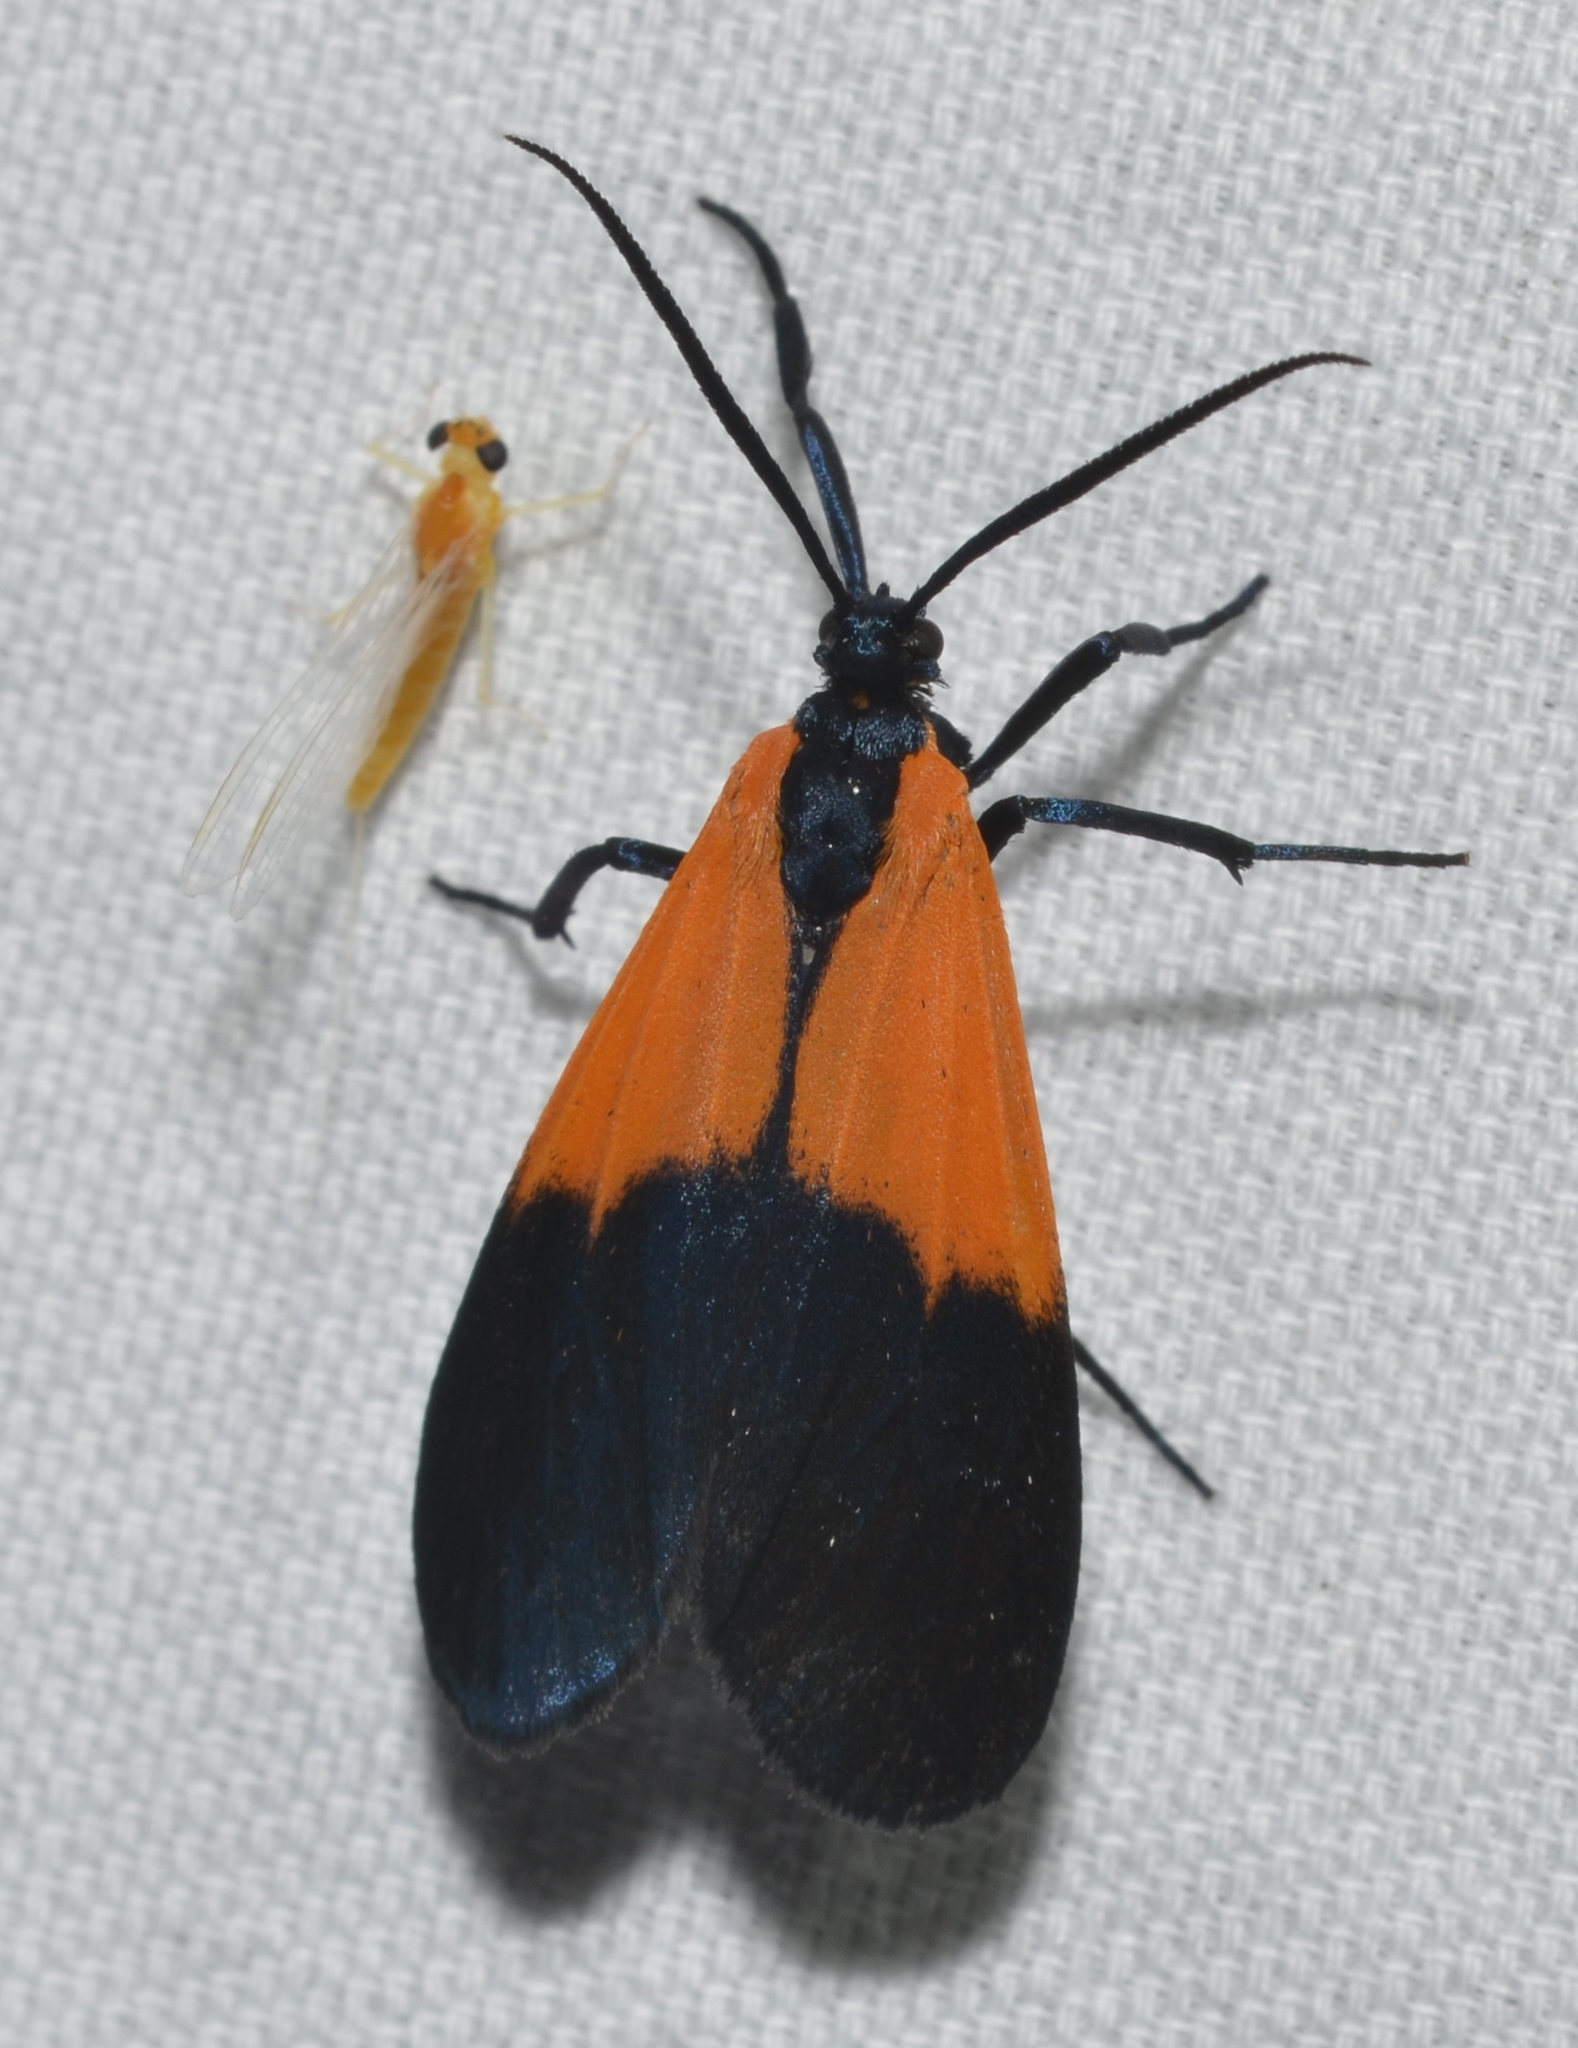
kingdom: Animalia
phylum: Arthropoda
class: Insecta
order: Lepidoptera
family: Erebidae
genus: Lycomorpha
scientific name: Lycomorpha pholus
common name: Black-and-yellow lichen moth
